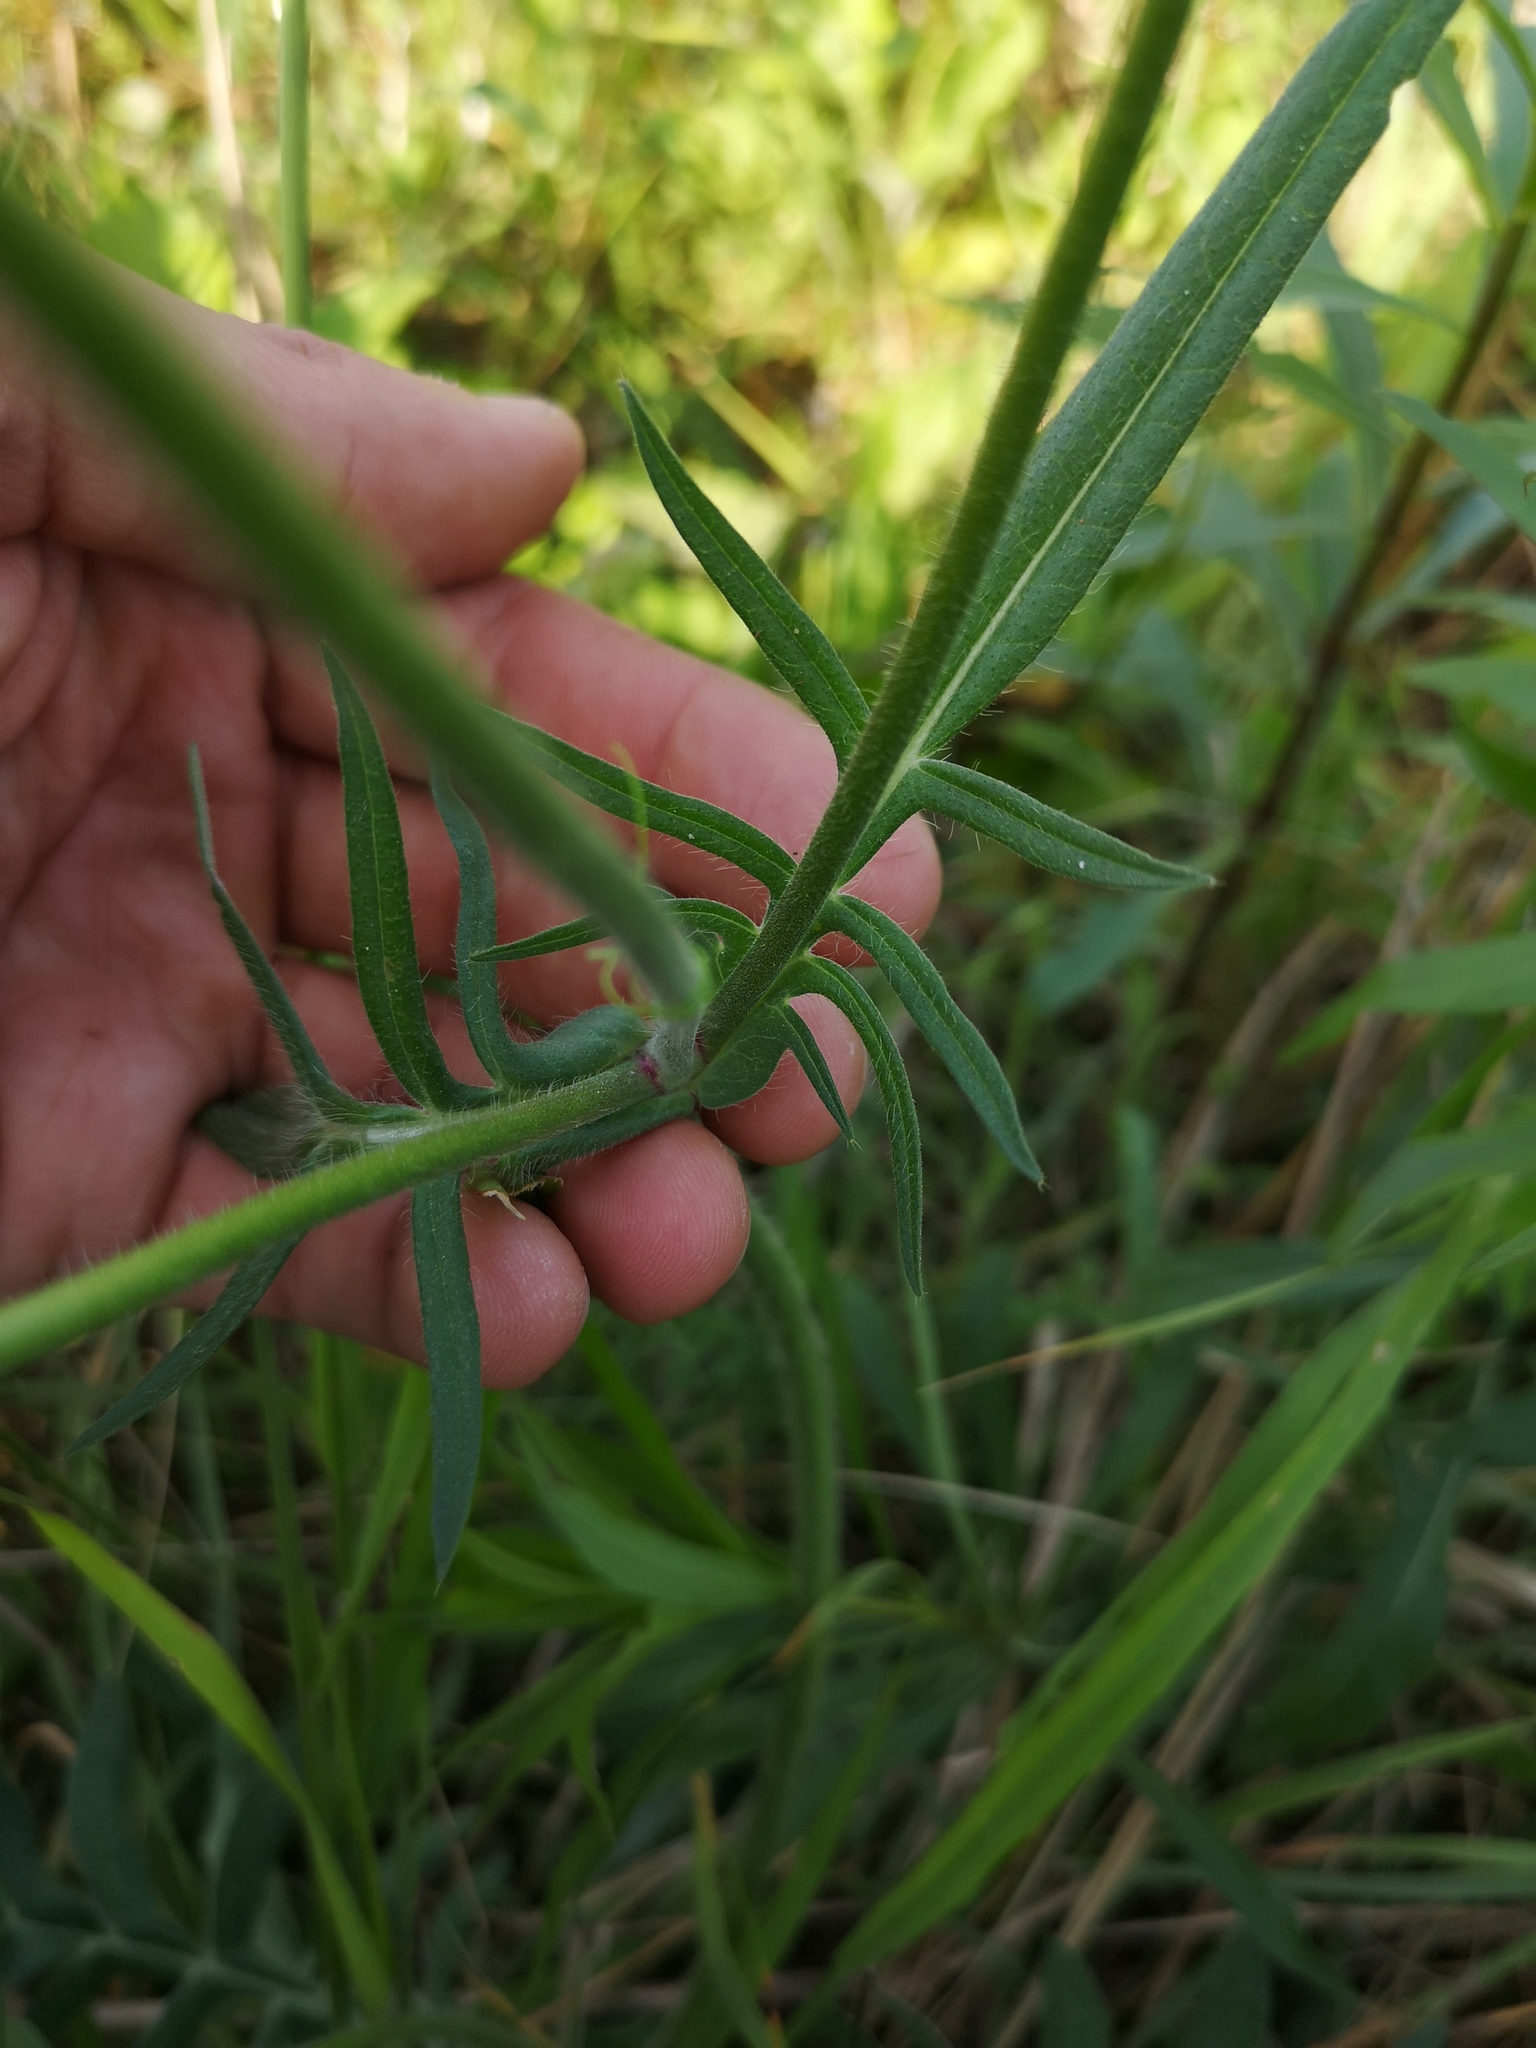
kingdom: Plantae
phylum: Tracheophyta
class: Magnoliopsida
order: Dipsacales
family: Caprifoliaceae
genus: Knautia
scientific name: Knautia arvensis
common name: Field scabiosa
